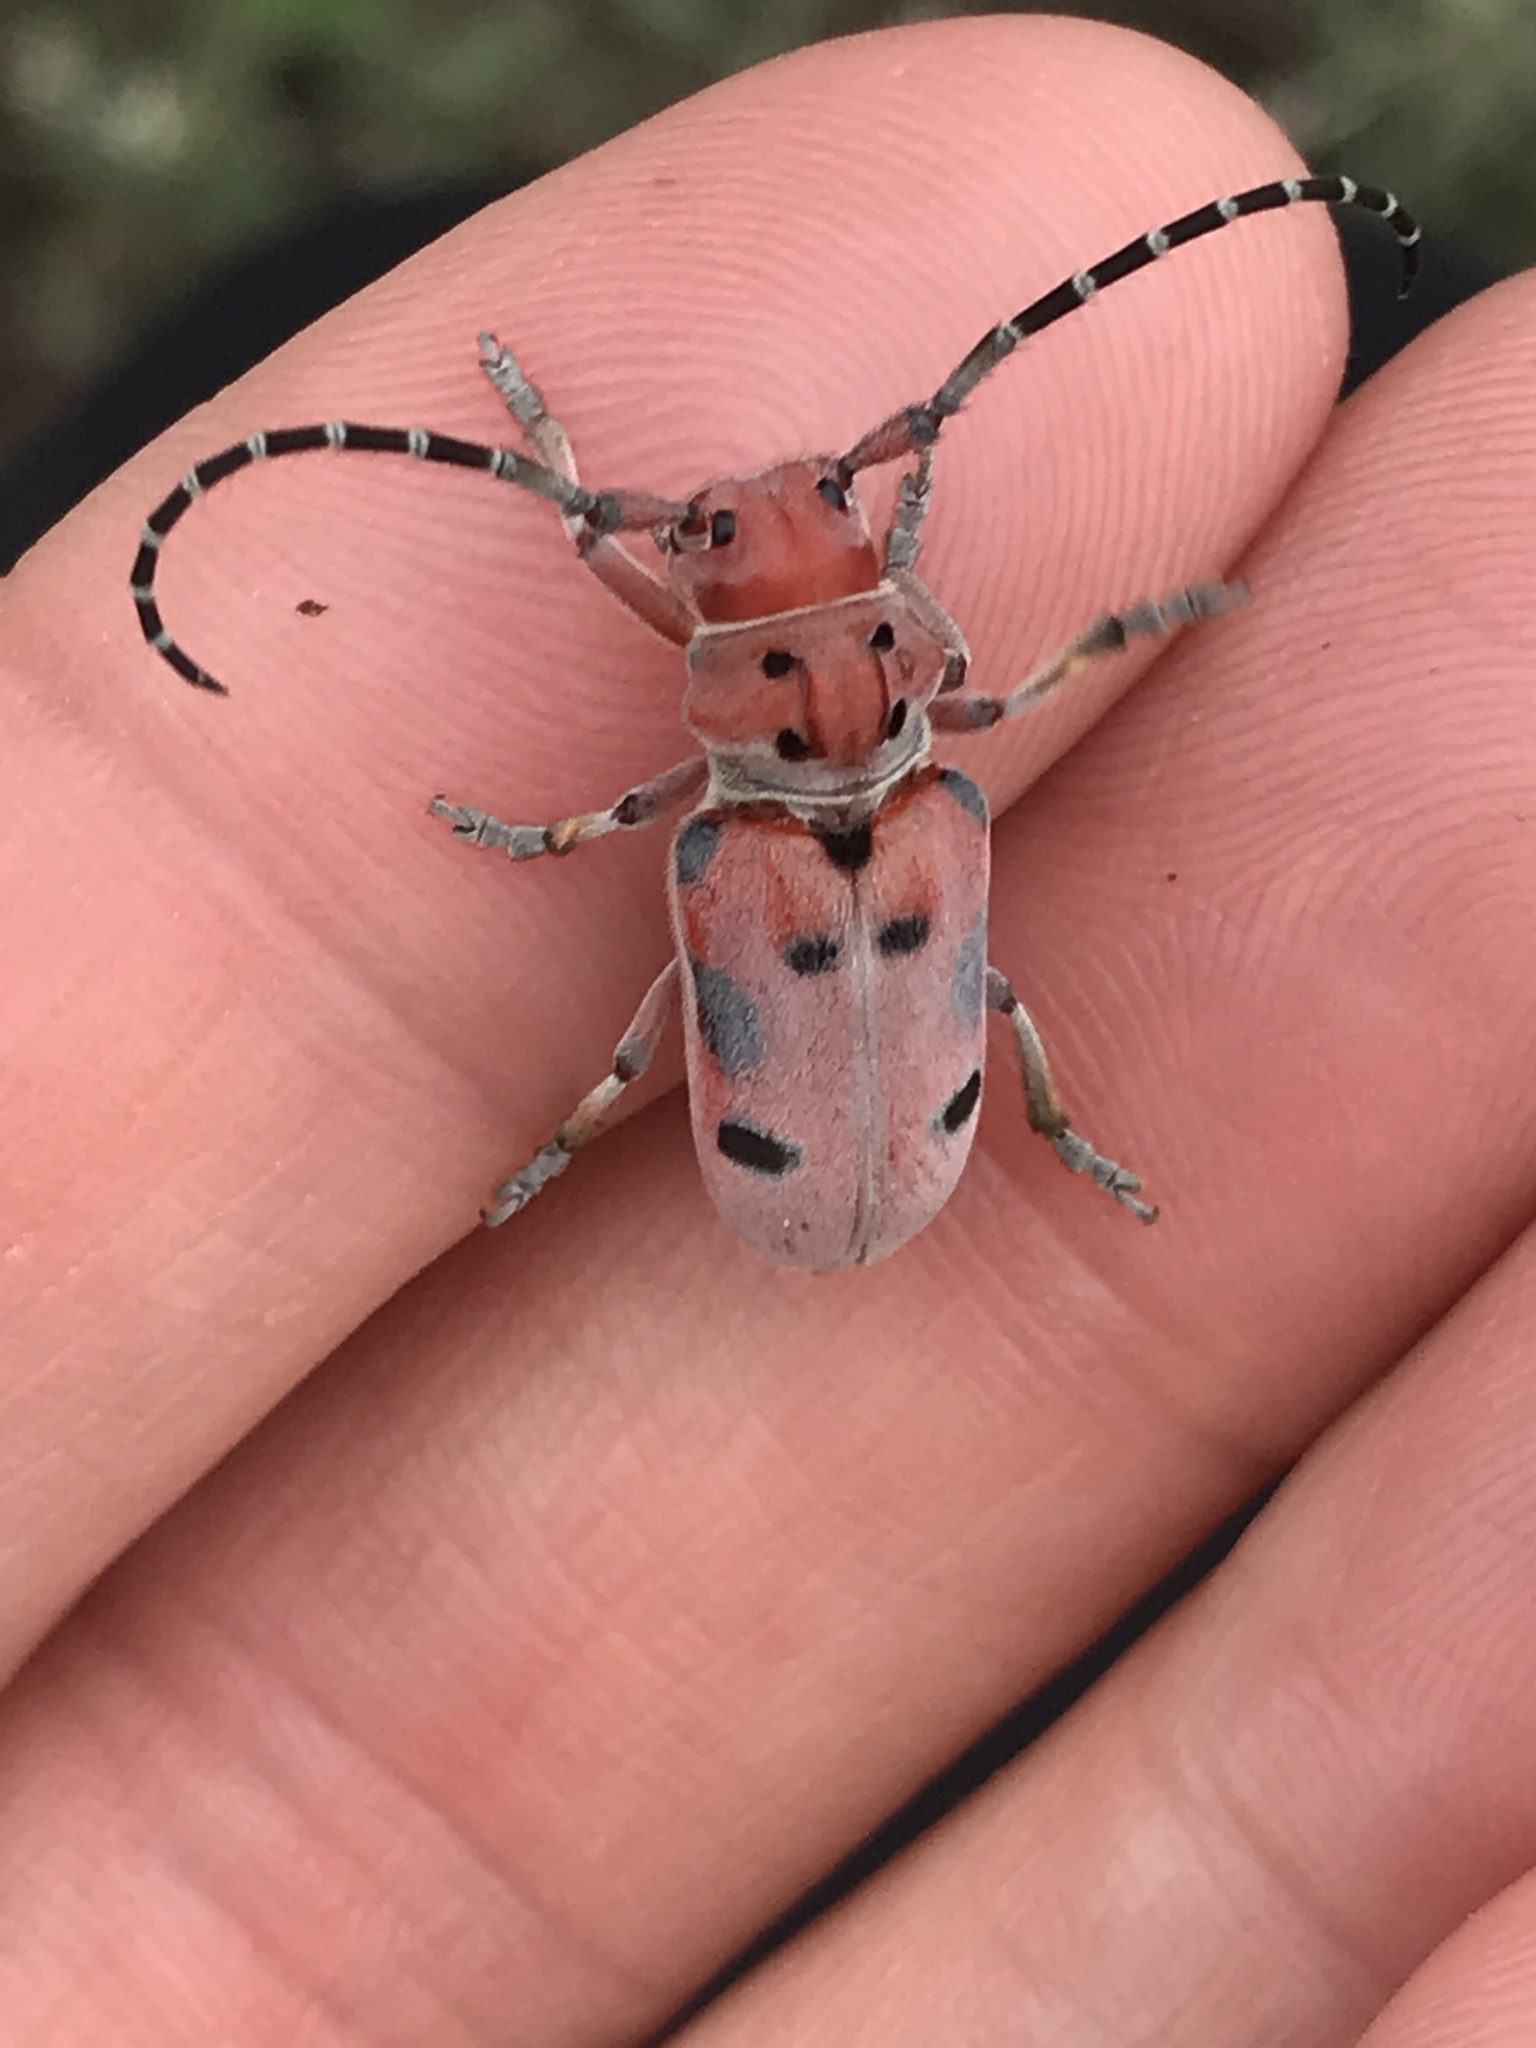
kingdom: Animalia
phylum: Arthropoda
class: Insecta
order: Coleoptera
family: Cerambycidae
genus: Tetraopes
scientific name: Tetraopes femoratus
